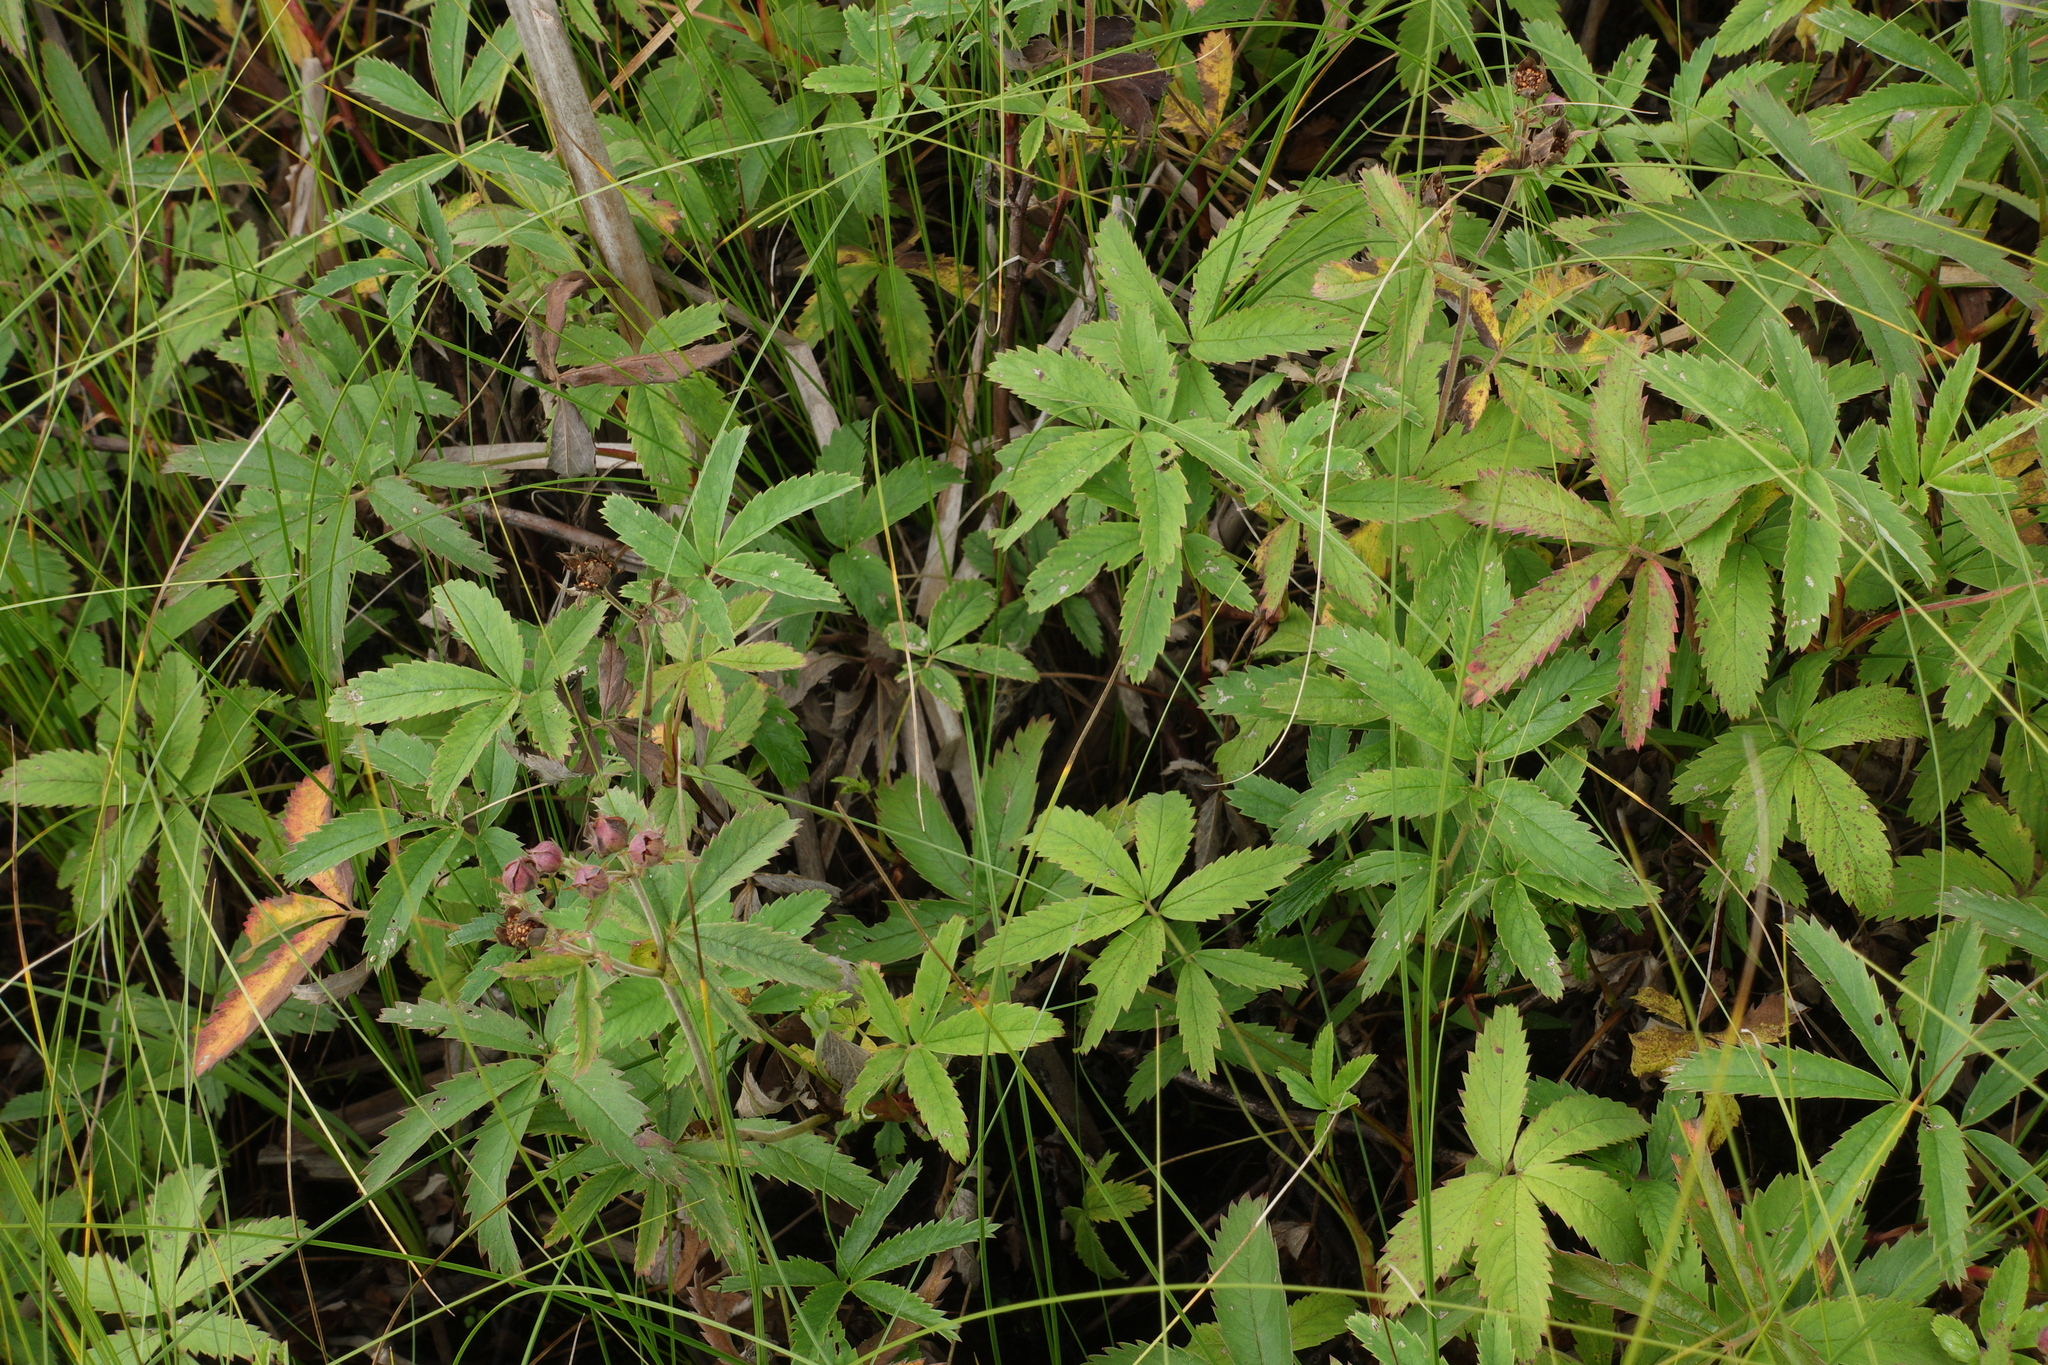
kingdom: Plantae
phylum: Tracheophyta
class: Magnoliopsida
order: Rosales
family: Rosaceae
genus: Comarum
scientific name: Comarum palustre
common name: Marsh cinquefoil
